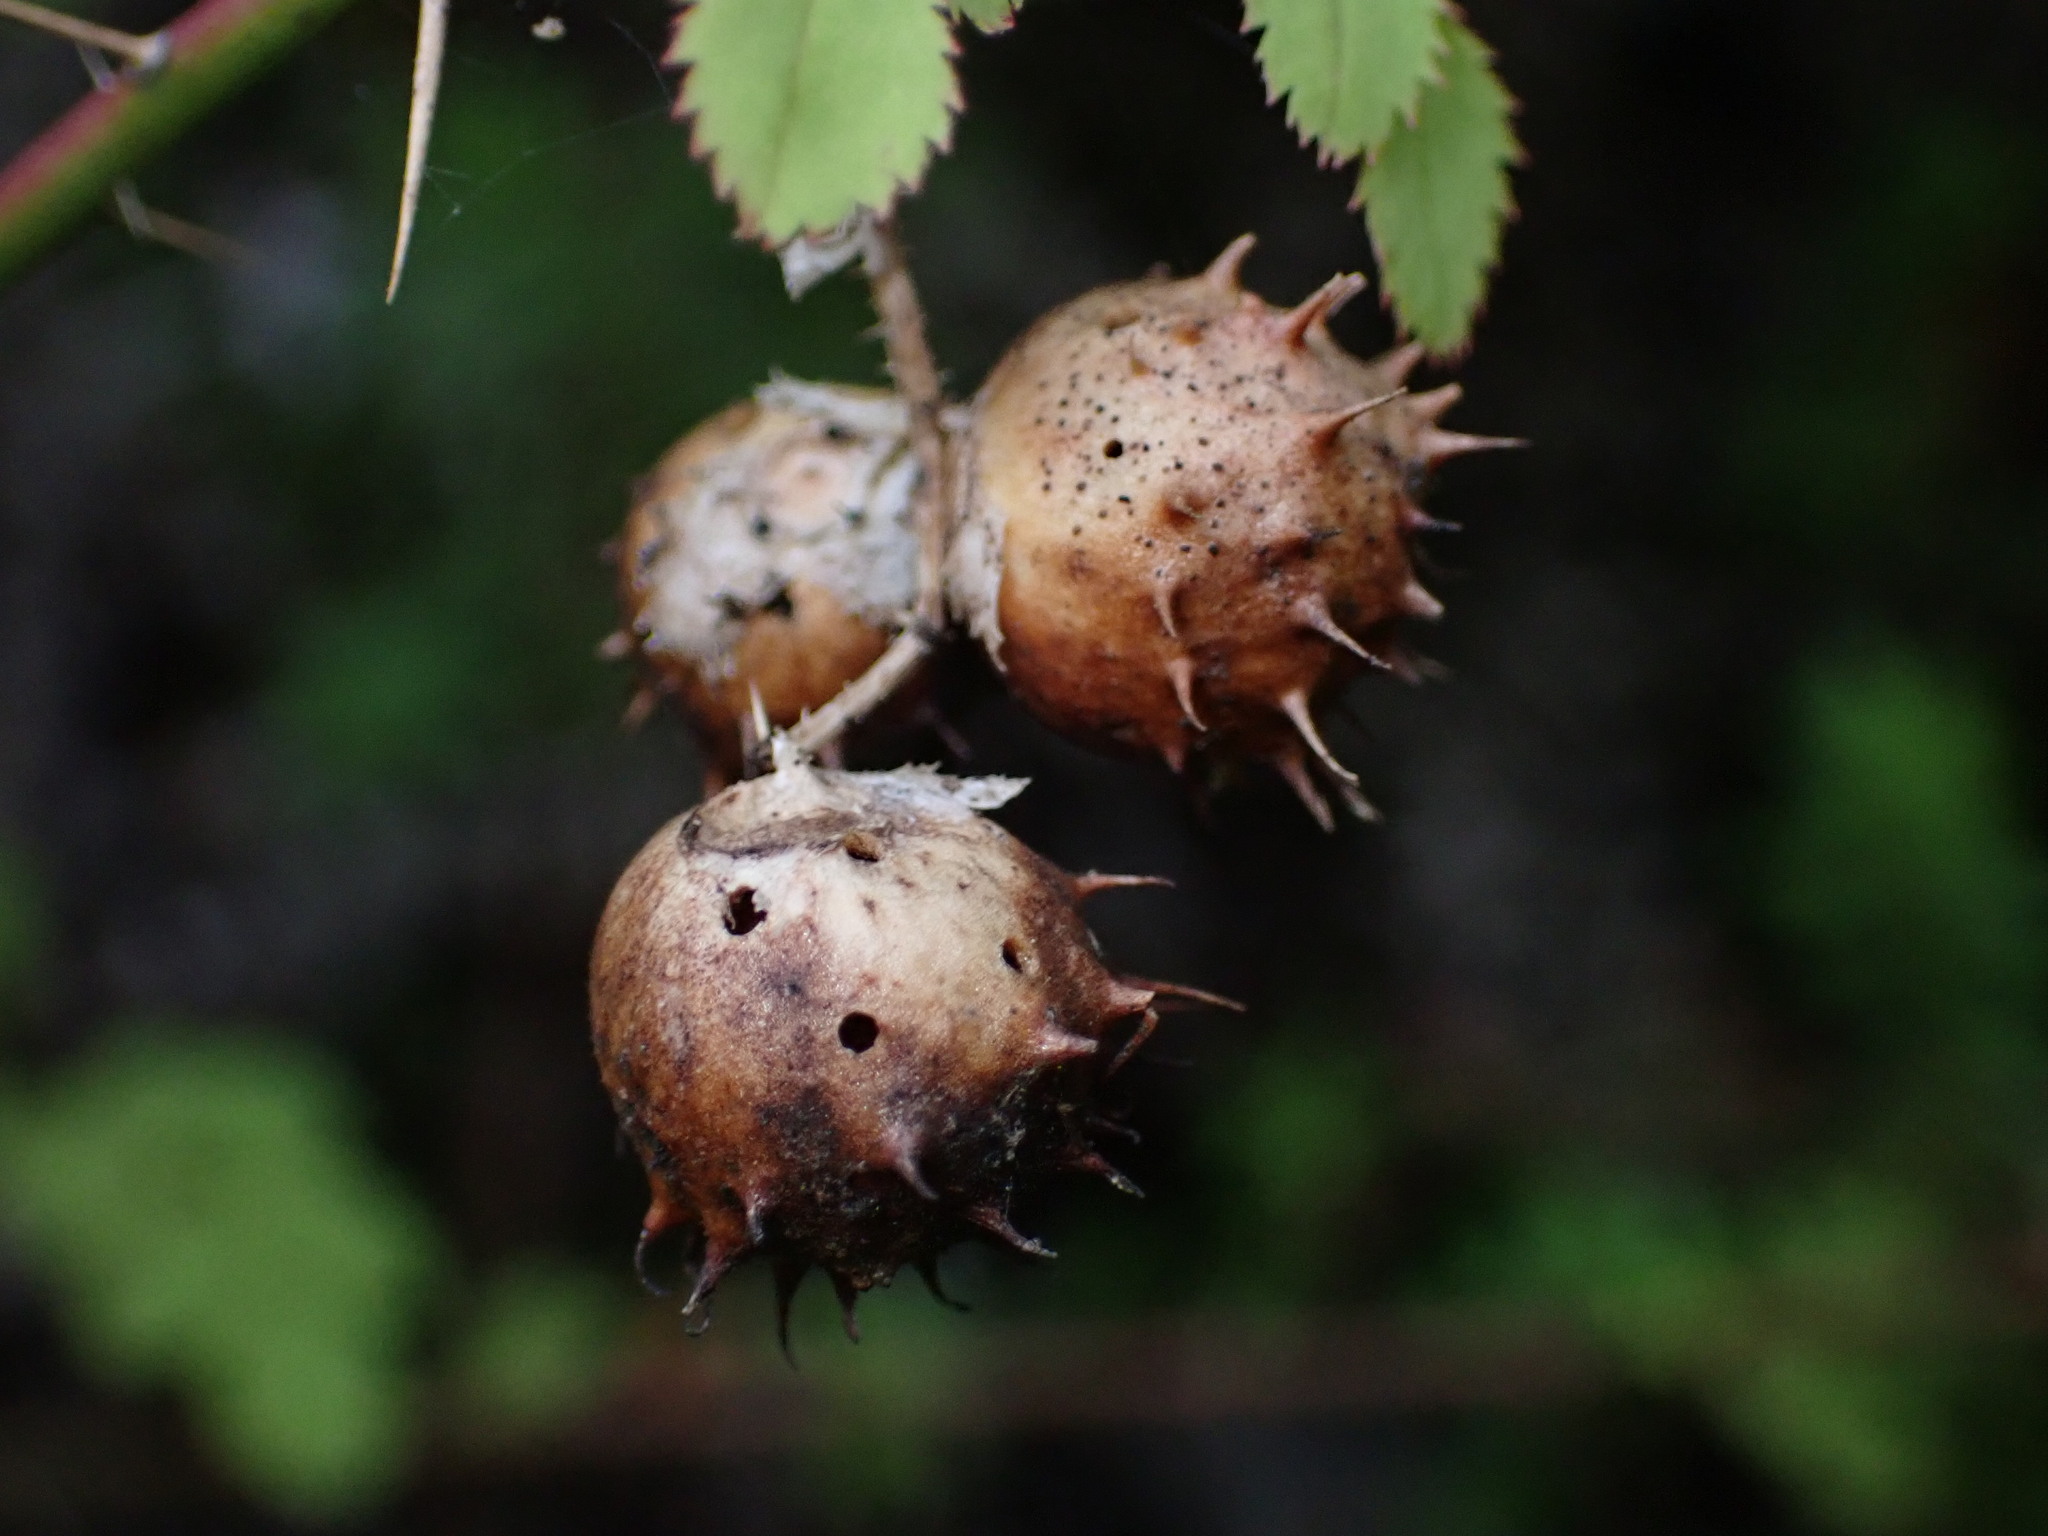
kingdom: Animalia
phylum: Arthropoda
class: Insecta
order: Hymenoptera
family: Cynipidae
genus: Diplolepis
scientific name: Diplolepis polita
